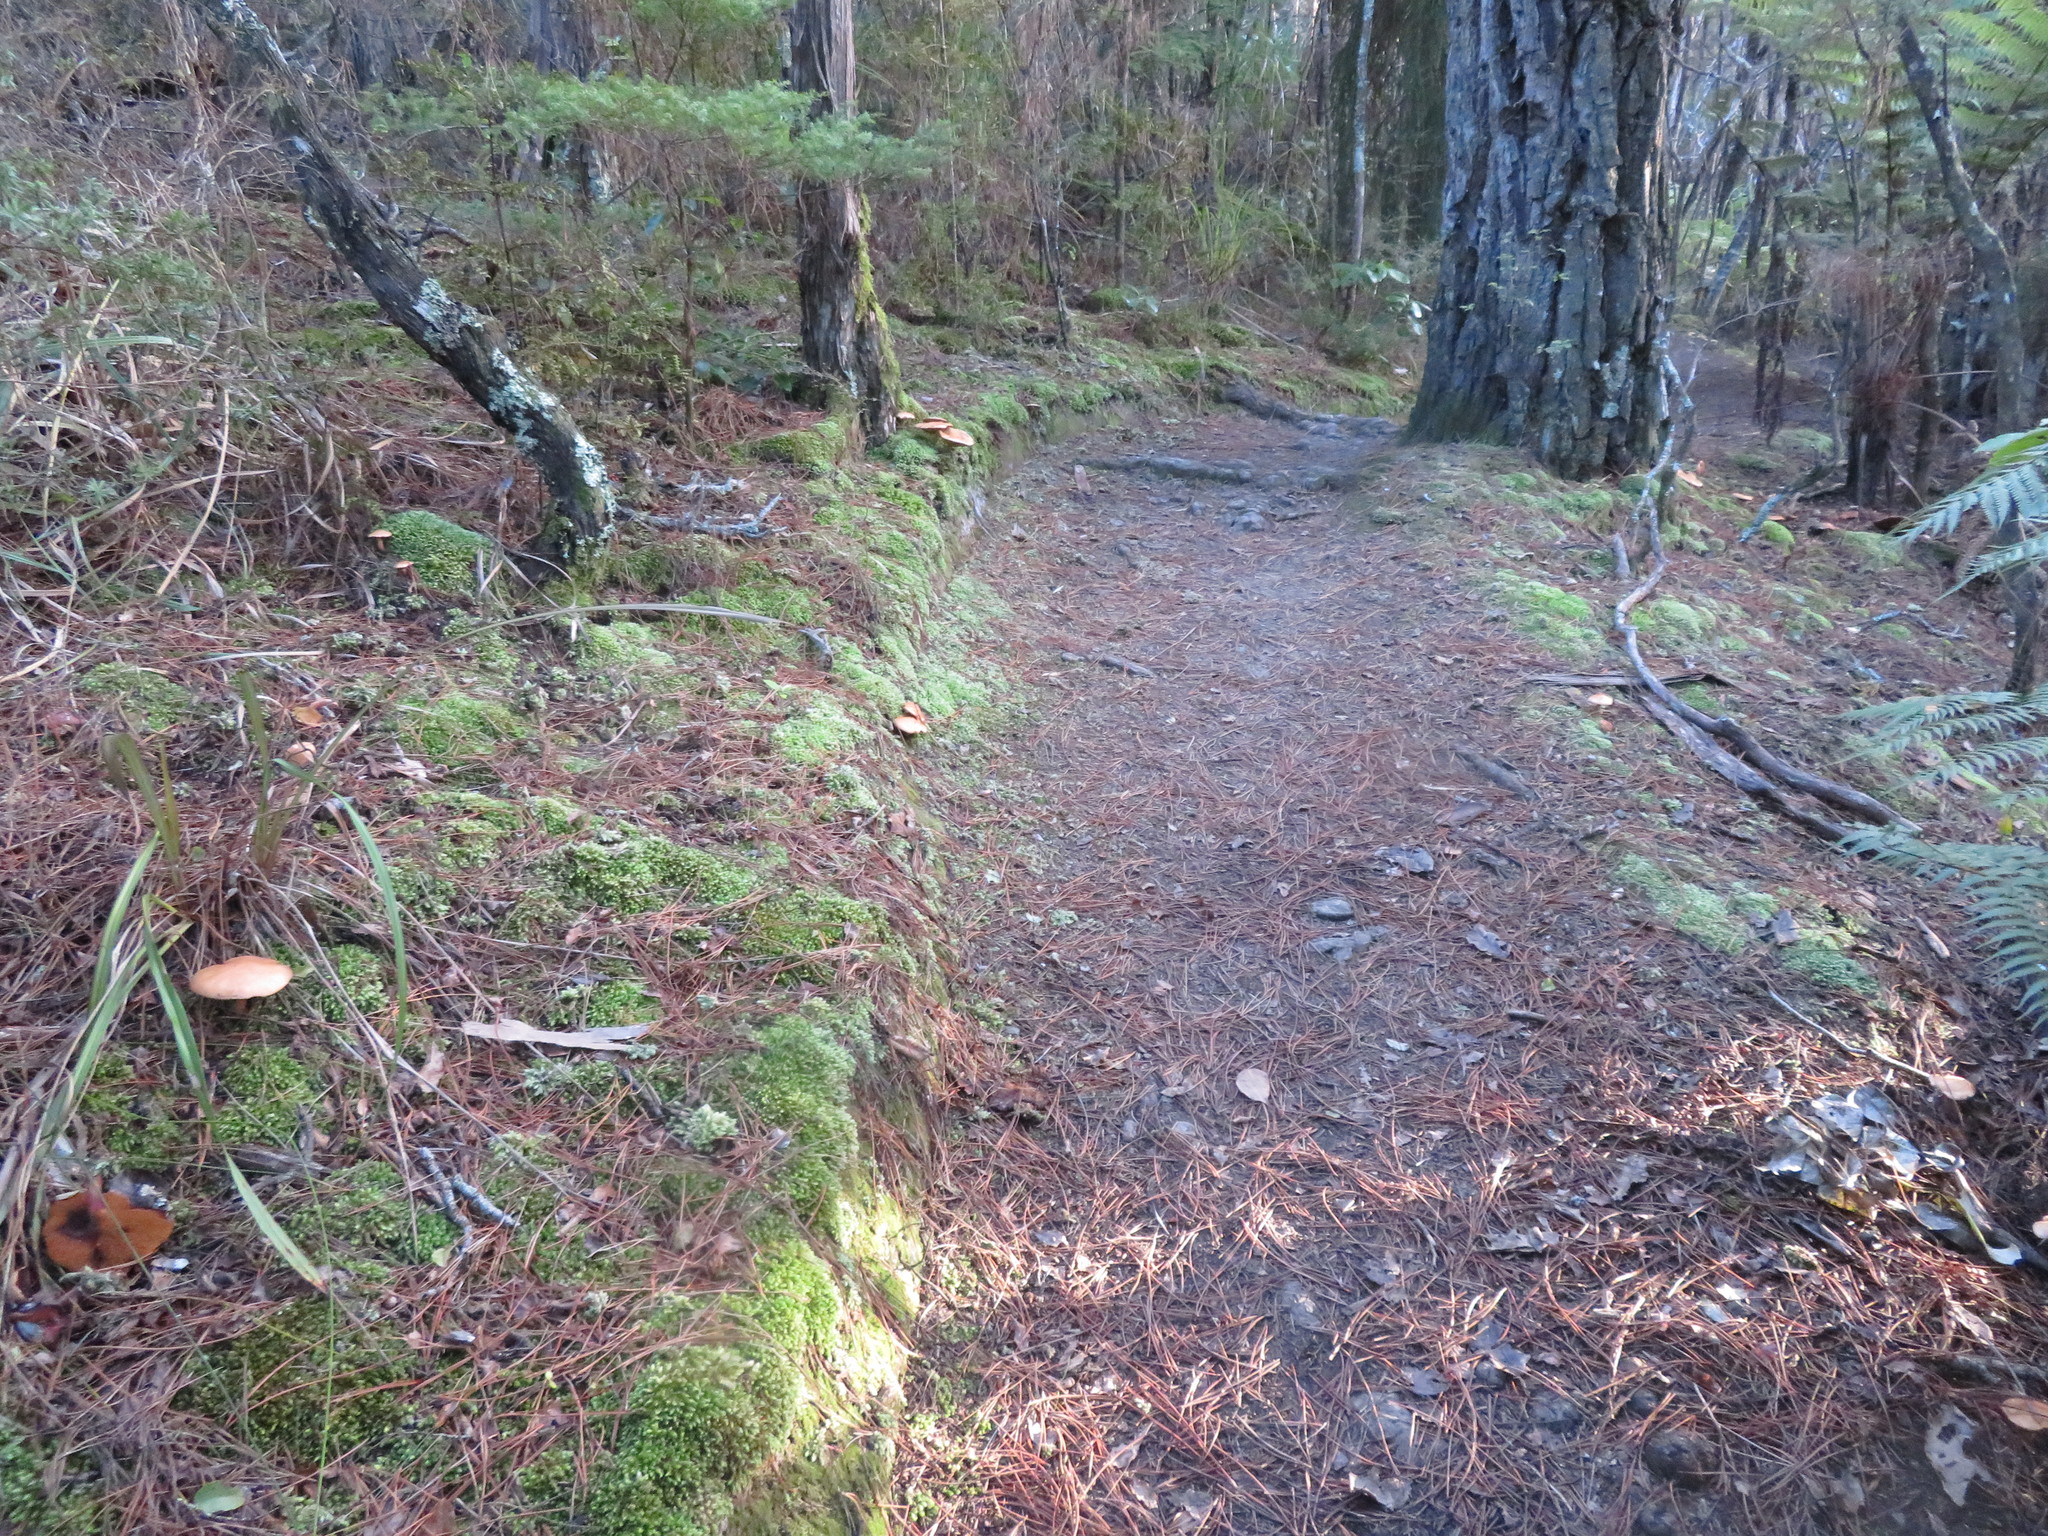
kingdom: Fungi
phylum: Basidiomycota
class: Agaricomycetes
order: Boletales
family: Suillaceae
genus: Suillus
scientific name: Suillus bovinus
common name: Bovine bolete
